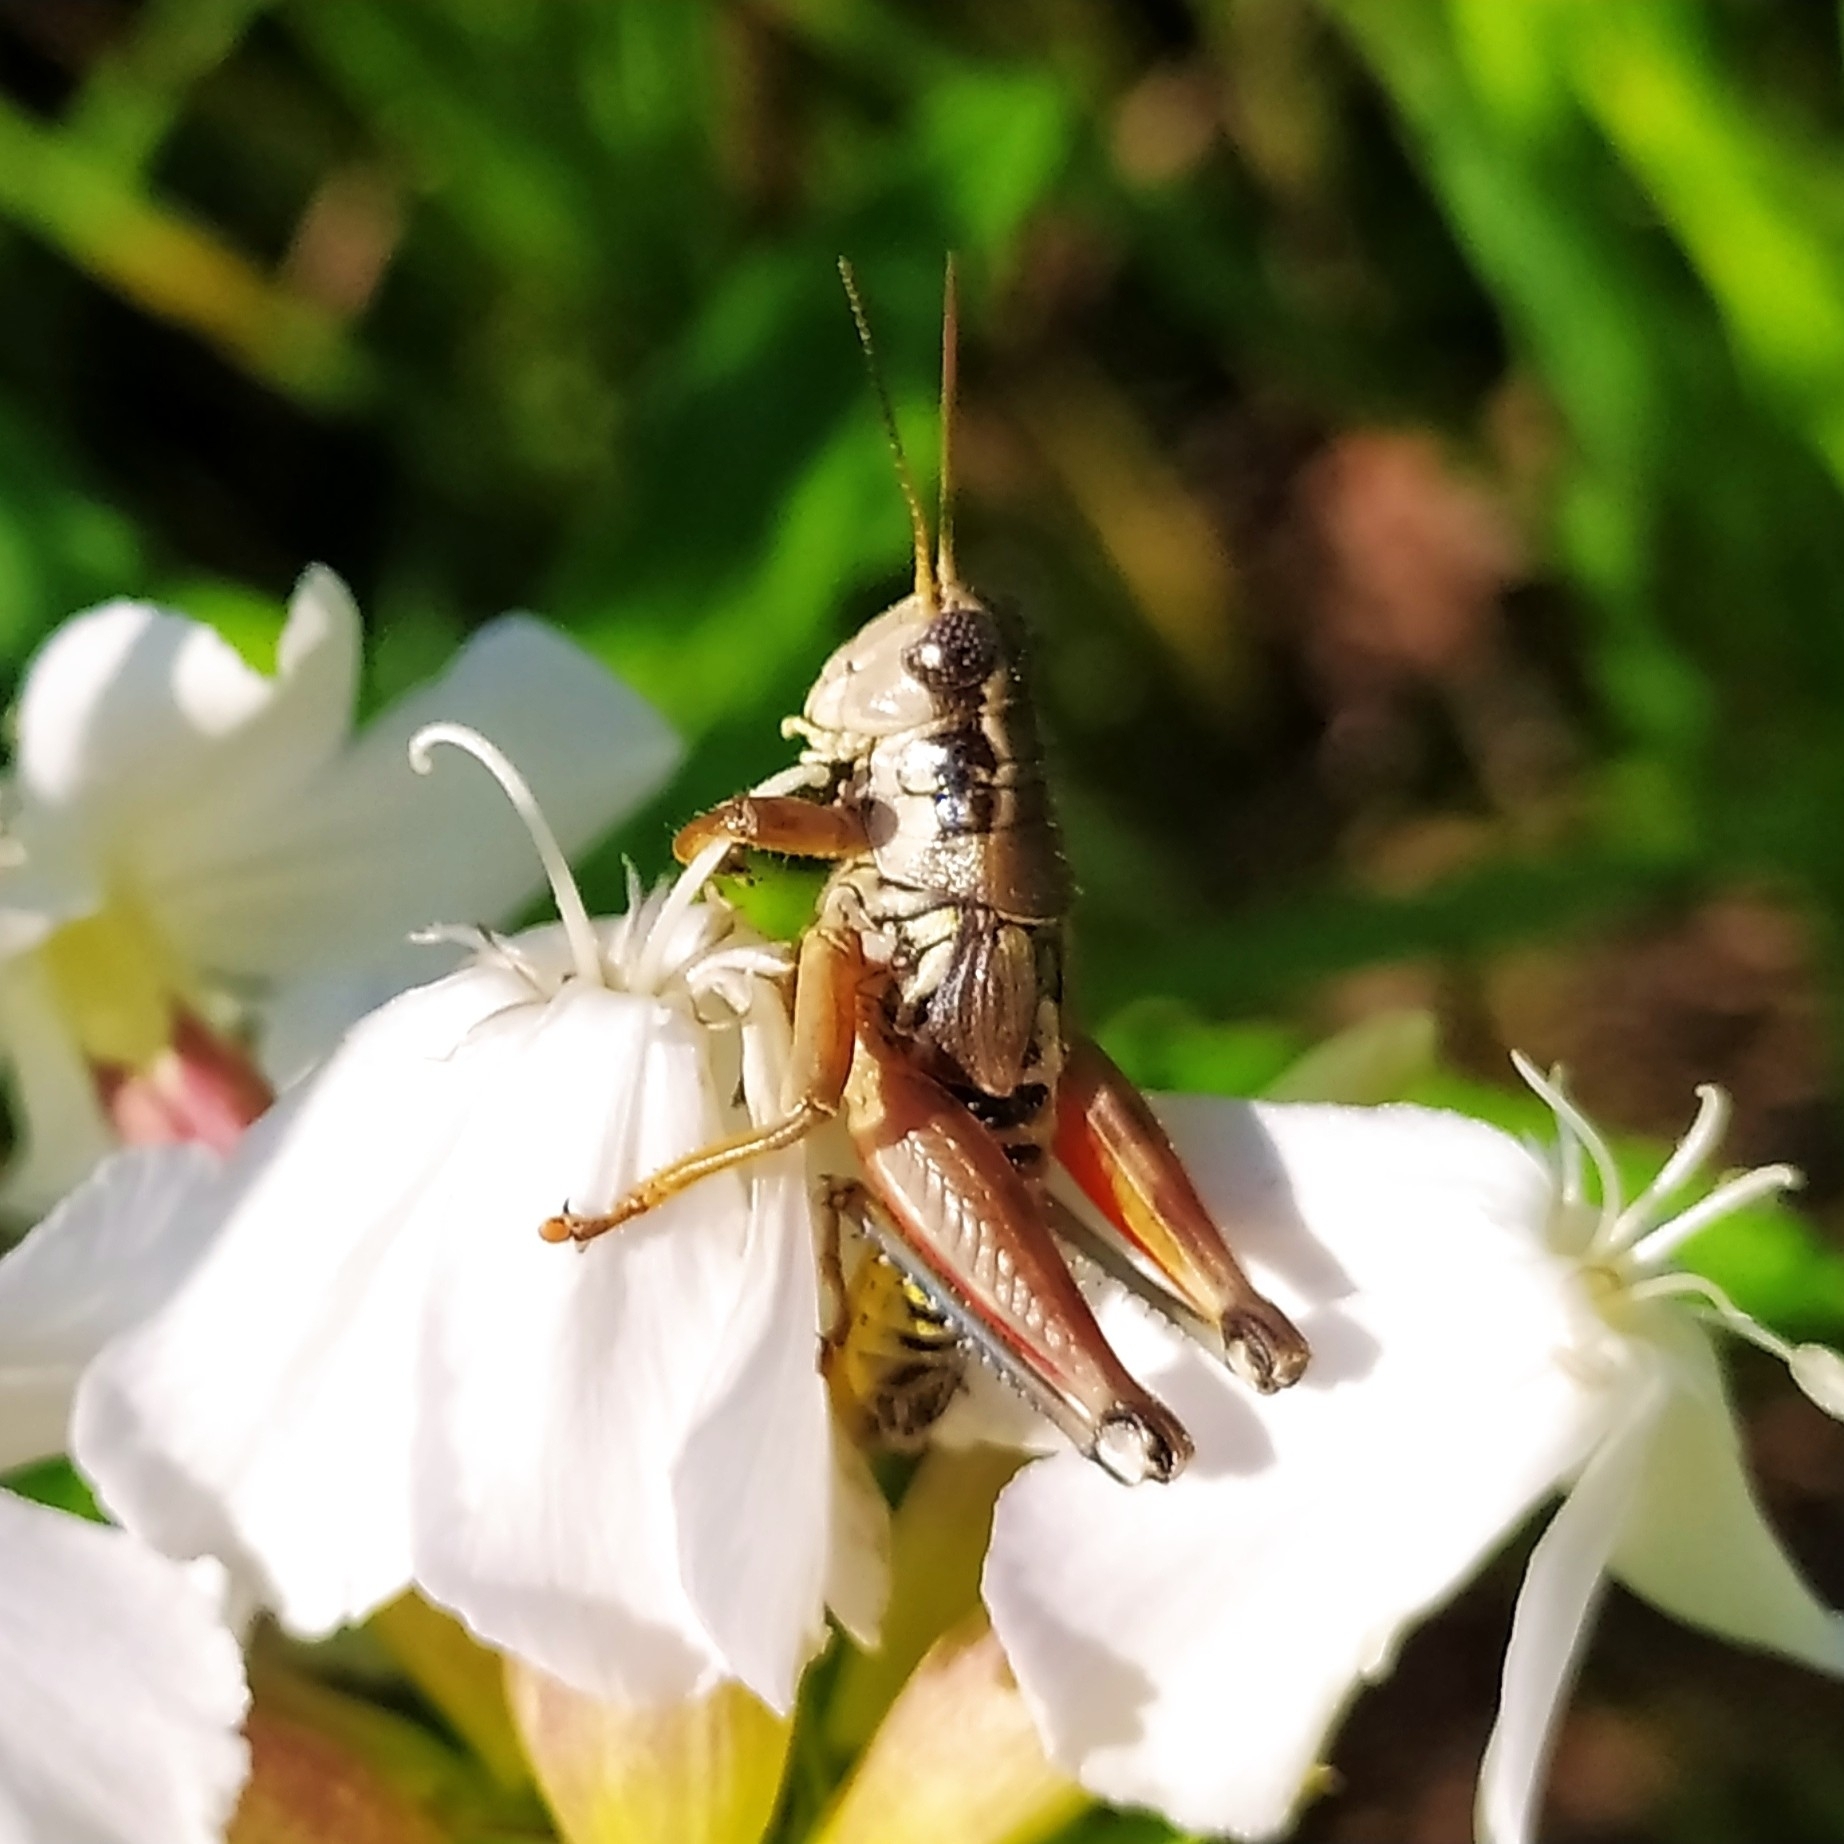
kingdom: Animalia
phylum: Arthropoda
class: Insecta
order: Orthoptera
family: Acrididae
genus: Podisma
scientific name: Podisma pedestris
